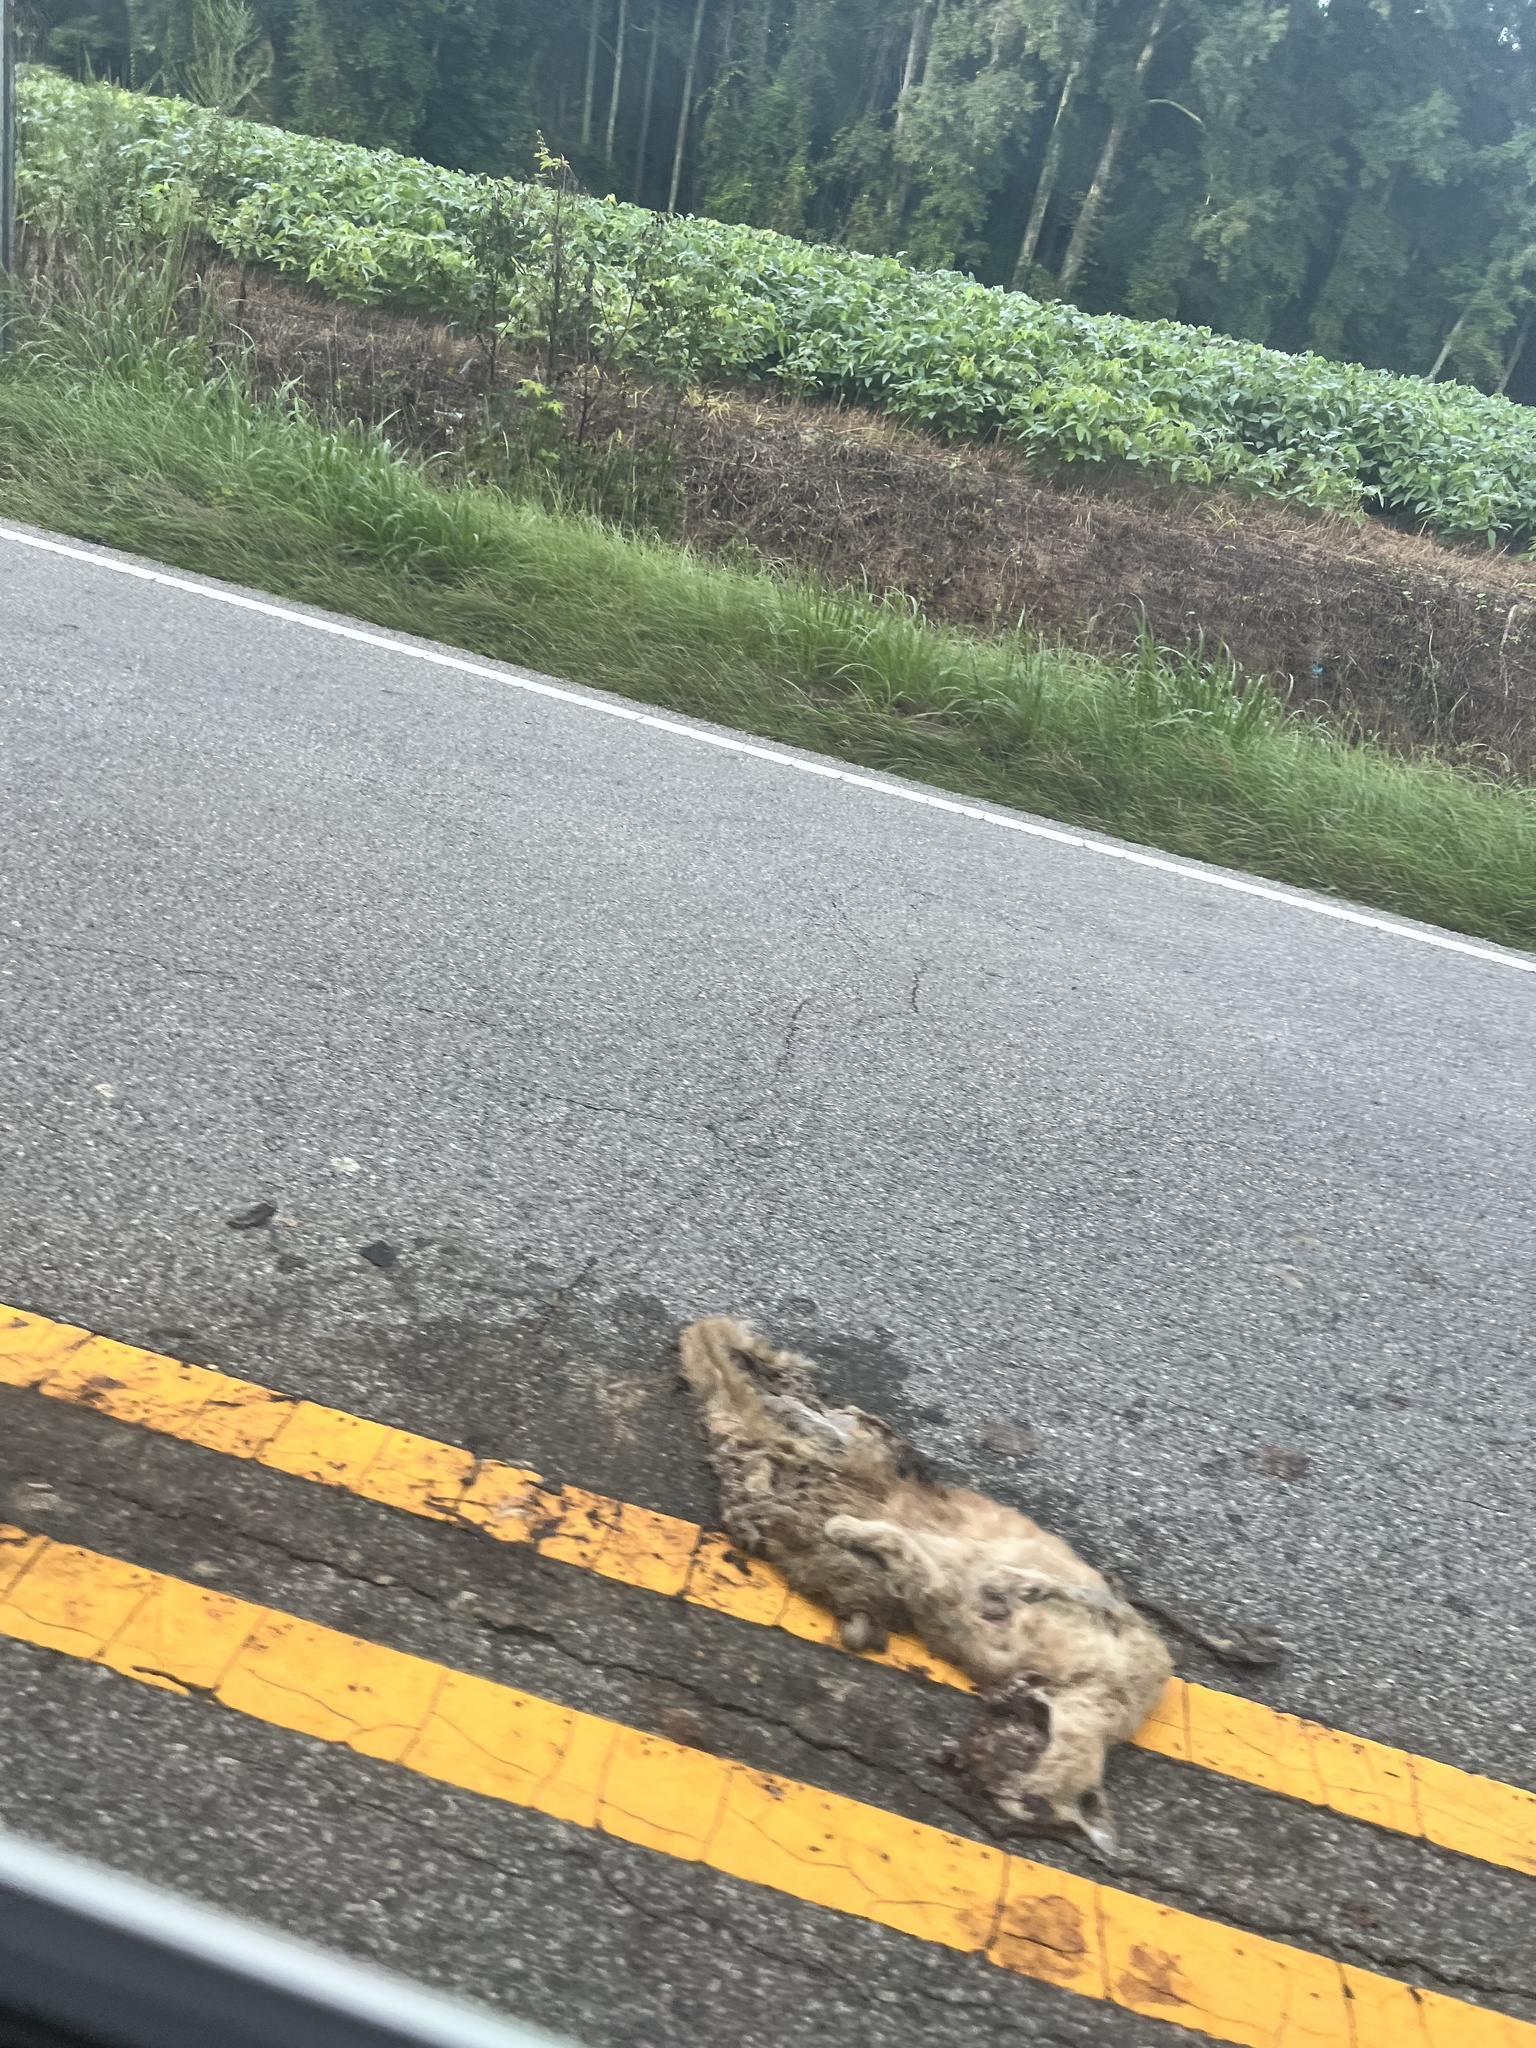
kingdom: Animalia
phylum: Chordata
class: Mammalia
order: Carnivora
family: Felidae
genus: Felis
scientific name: Felis catus
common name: Domestic cat
